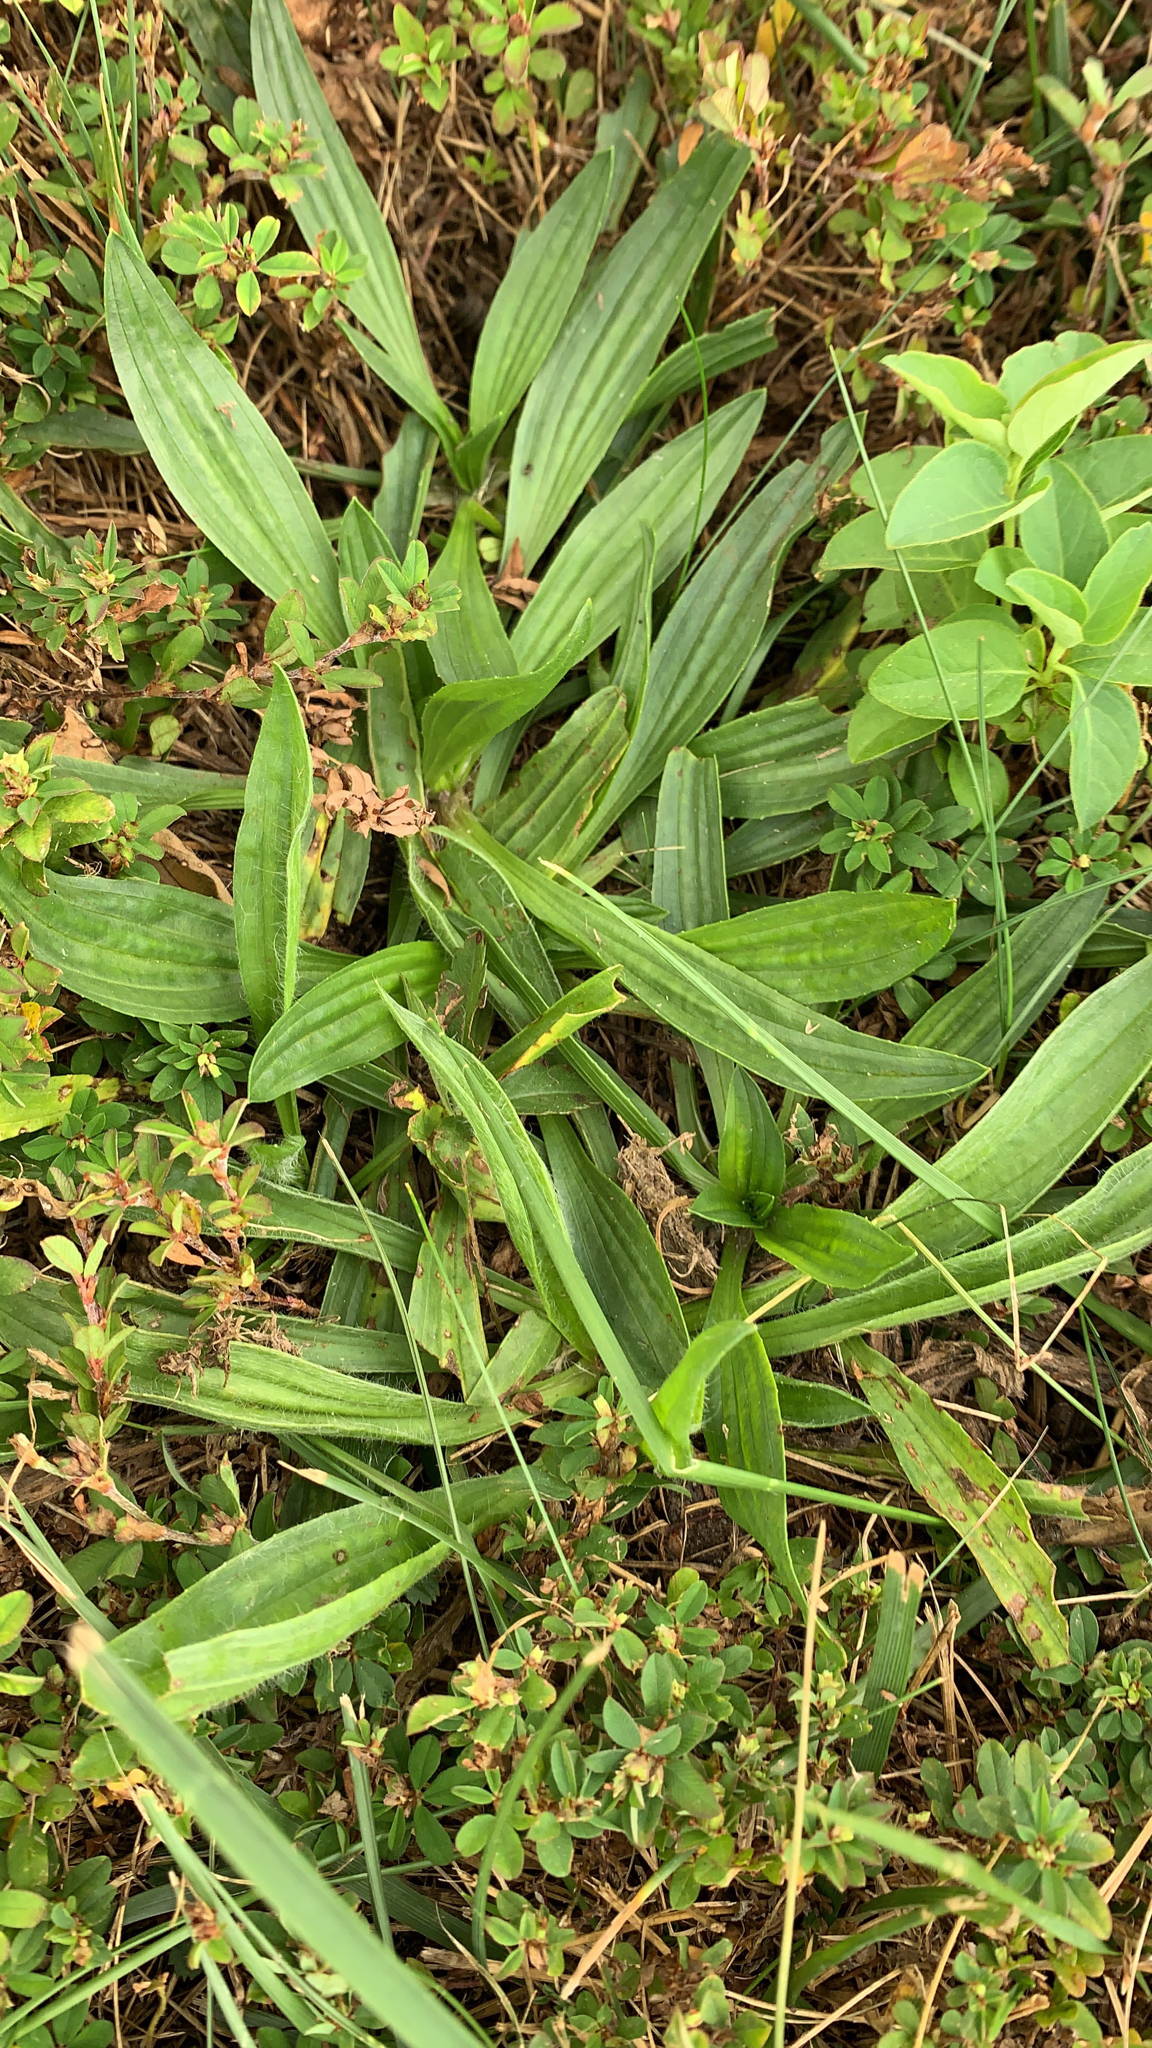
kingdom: Plantae
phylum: Tracheophyta
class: Magnoliopsida
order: Lamiales
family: Plantaginaceae
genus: Plantago
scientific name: Plantago lanceolata
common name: Ribwort plantain
